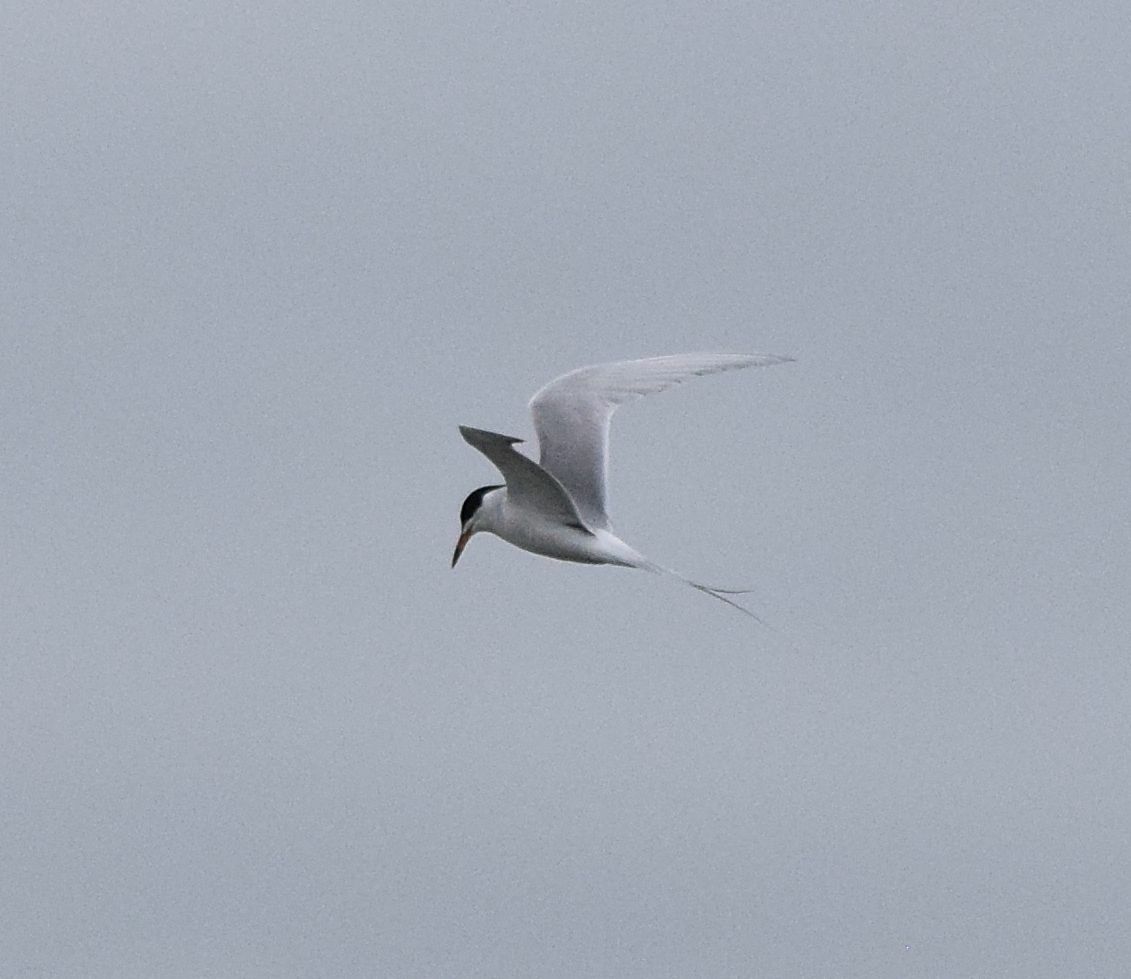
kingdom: Animalia
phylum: Chordata
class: Aves
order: Charadriiformes
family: Laridae
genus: Sterna
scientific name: Sterna forsteri
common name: Forster's tern
